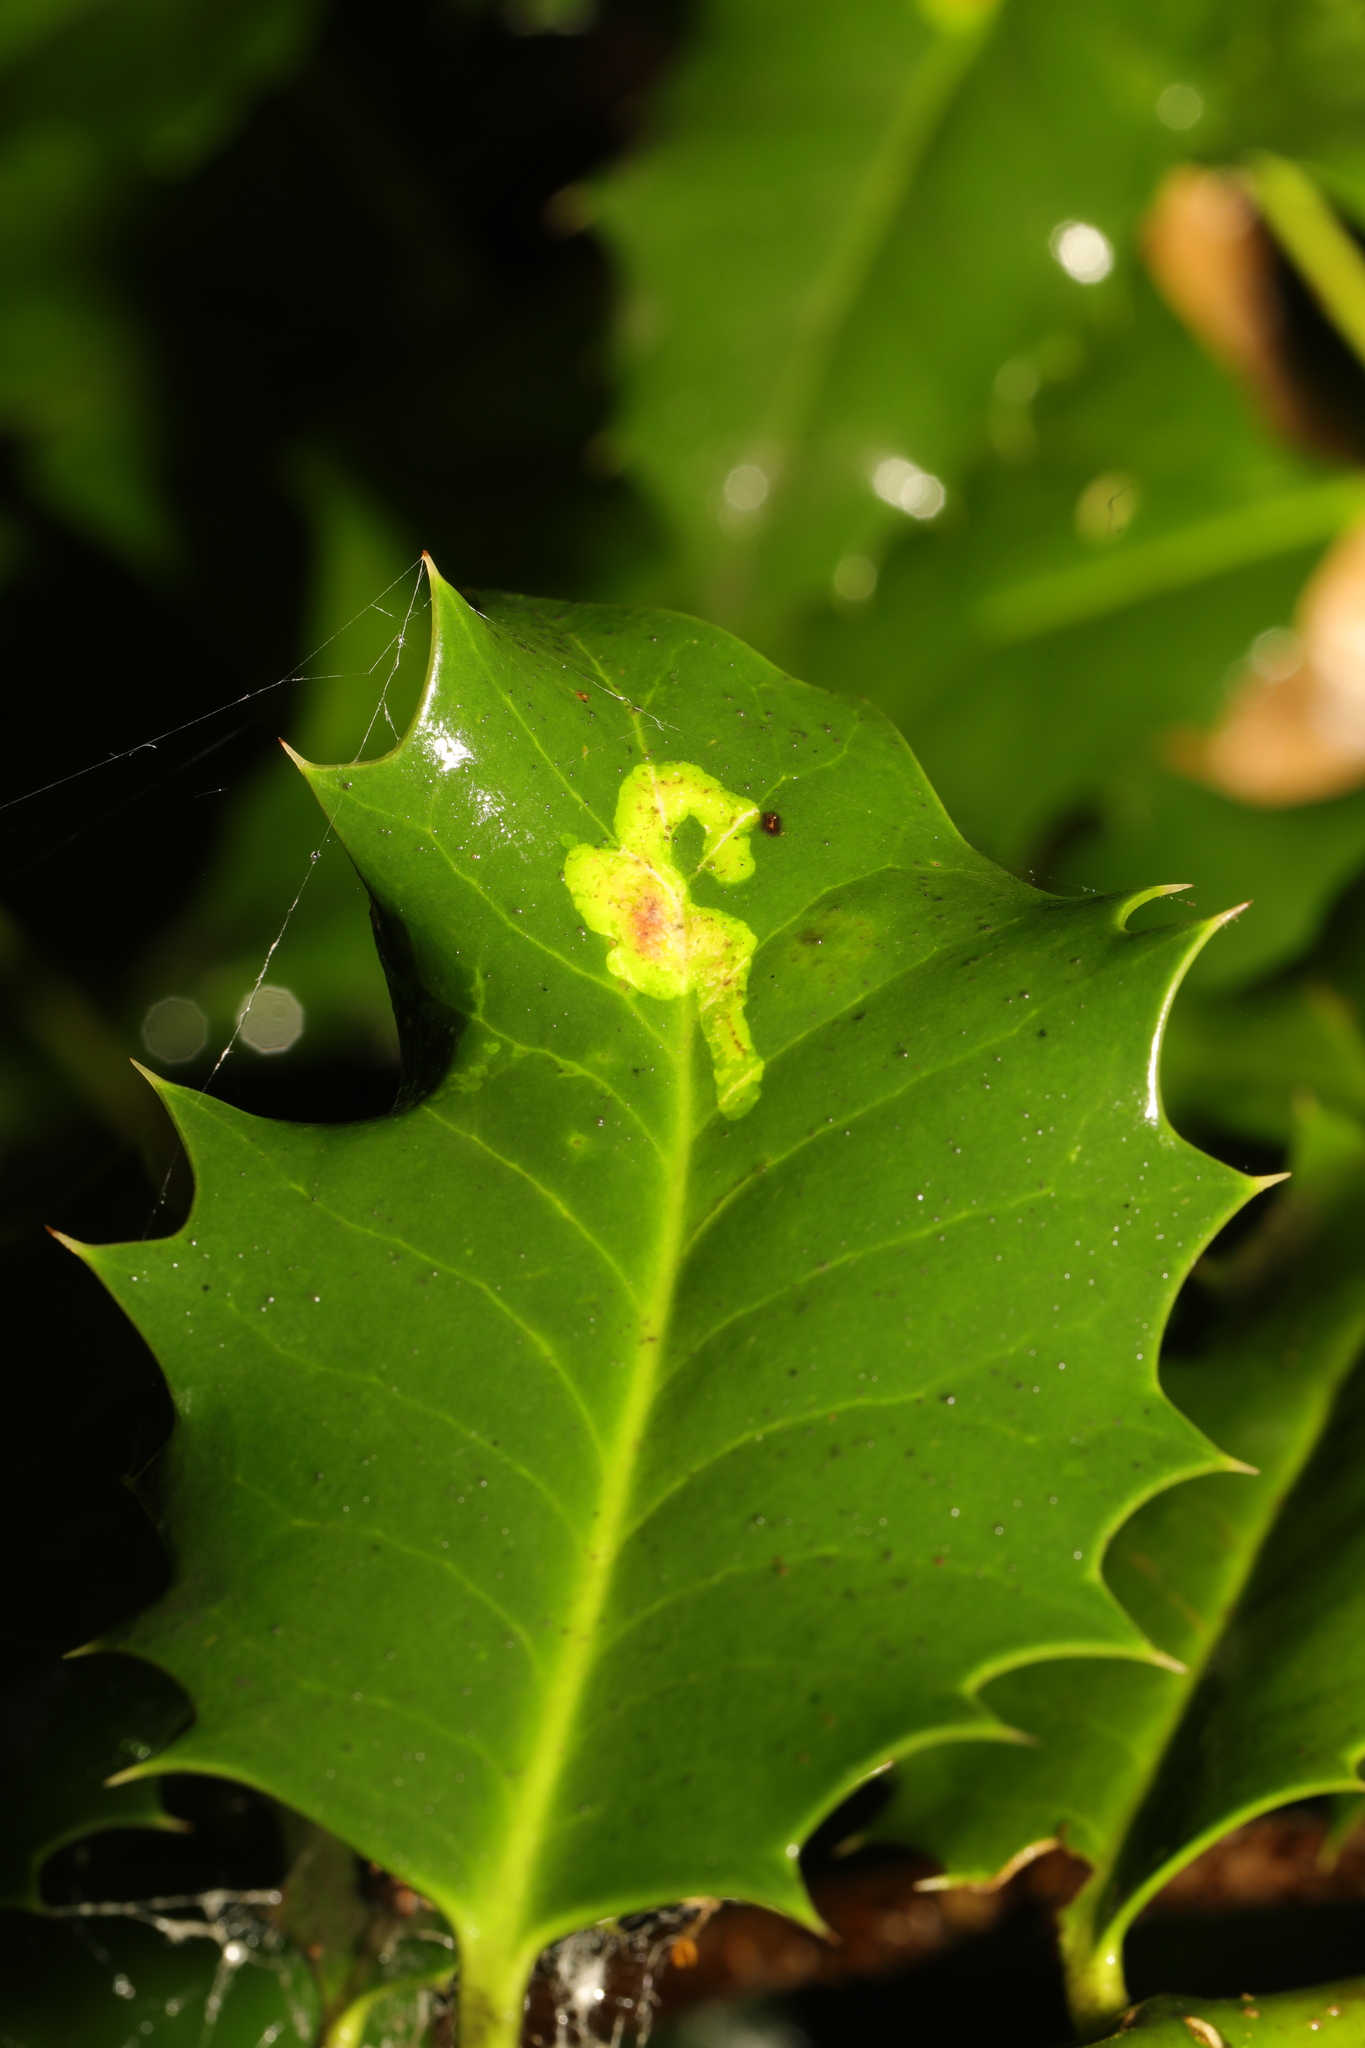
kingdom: Animalia
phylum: Arthropoda
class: Insecta
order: Diptera
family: Agromyzidae
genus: Phytomyza
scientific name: Phytomyza ilicis
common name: Holly leafminer
